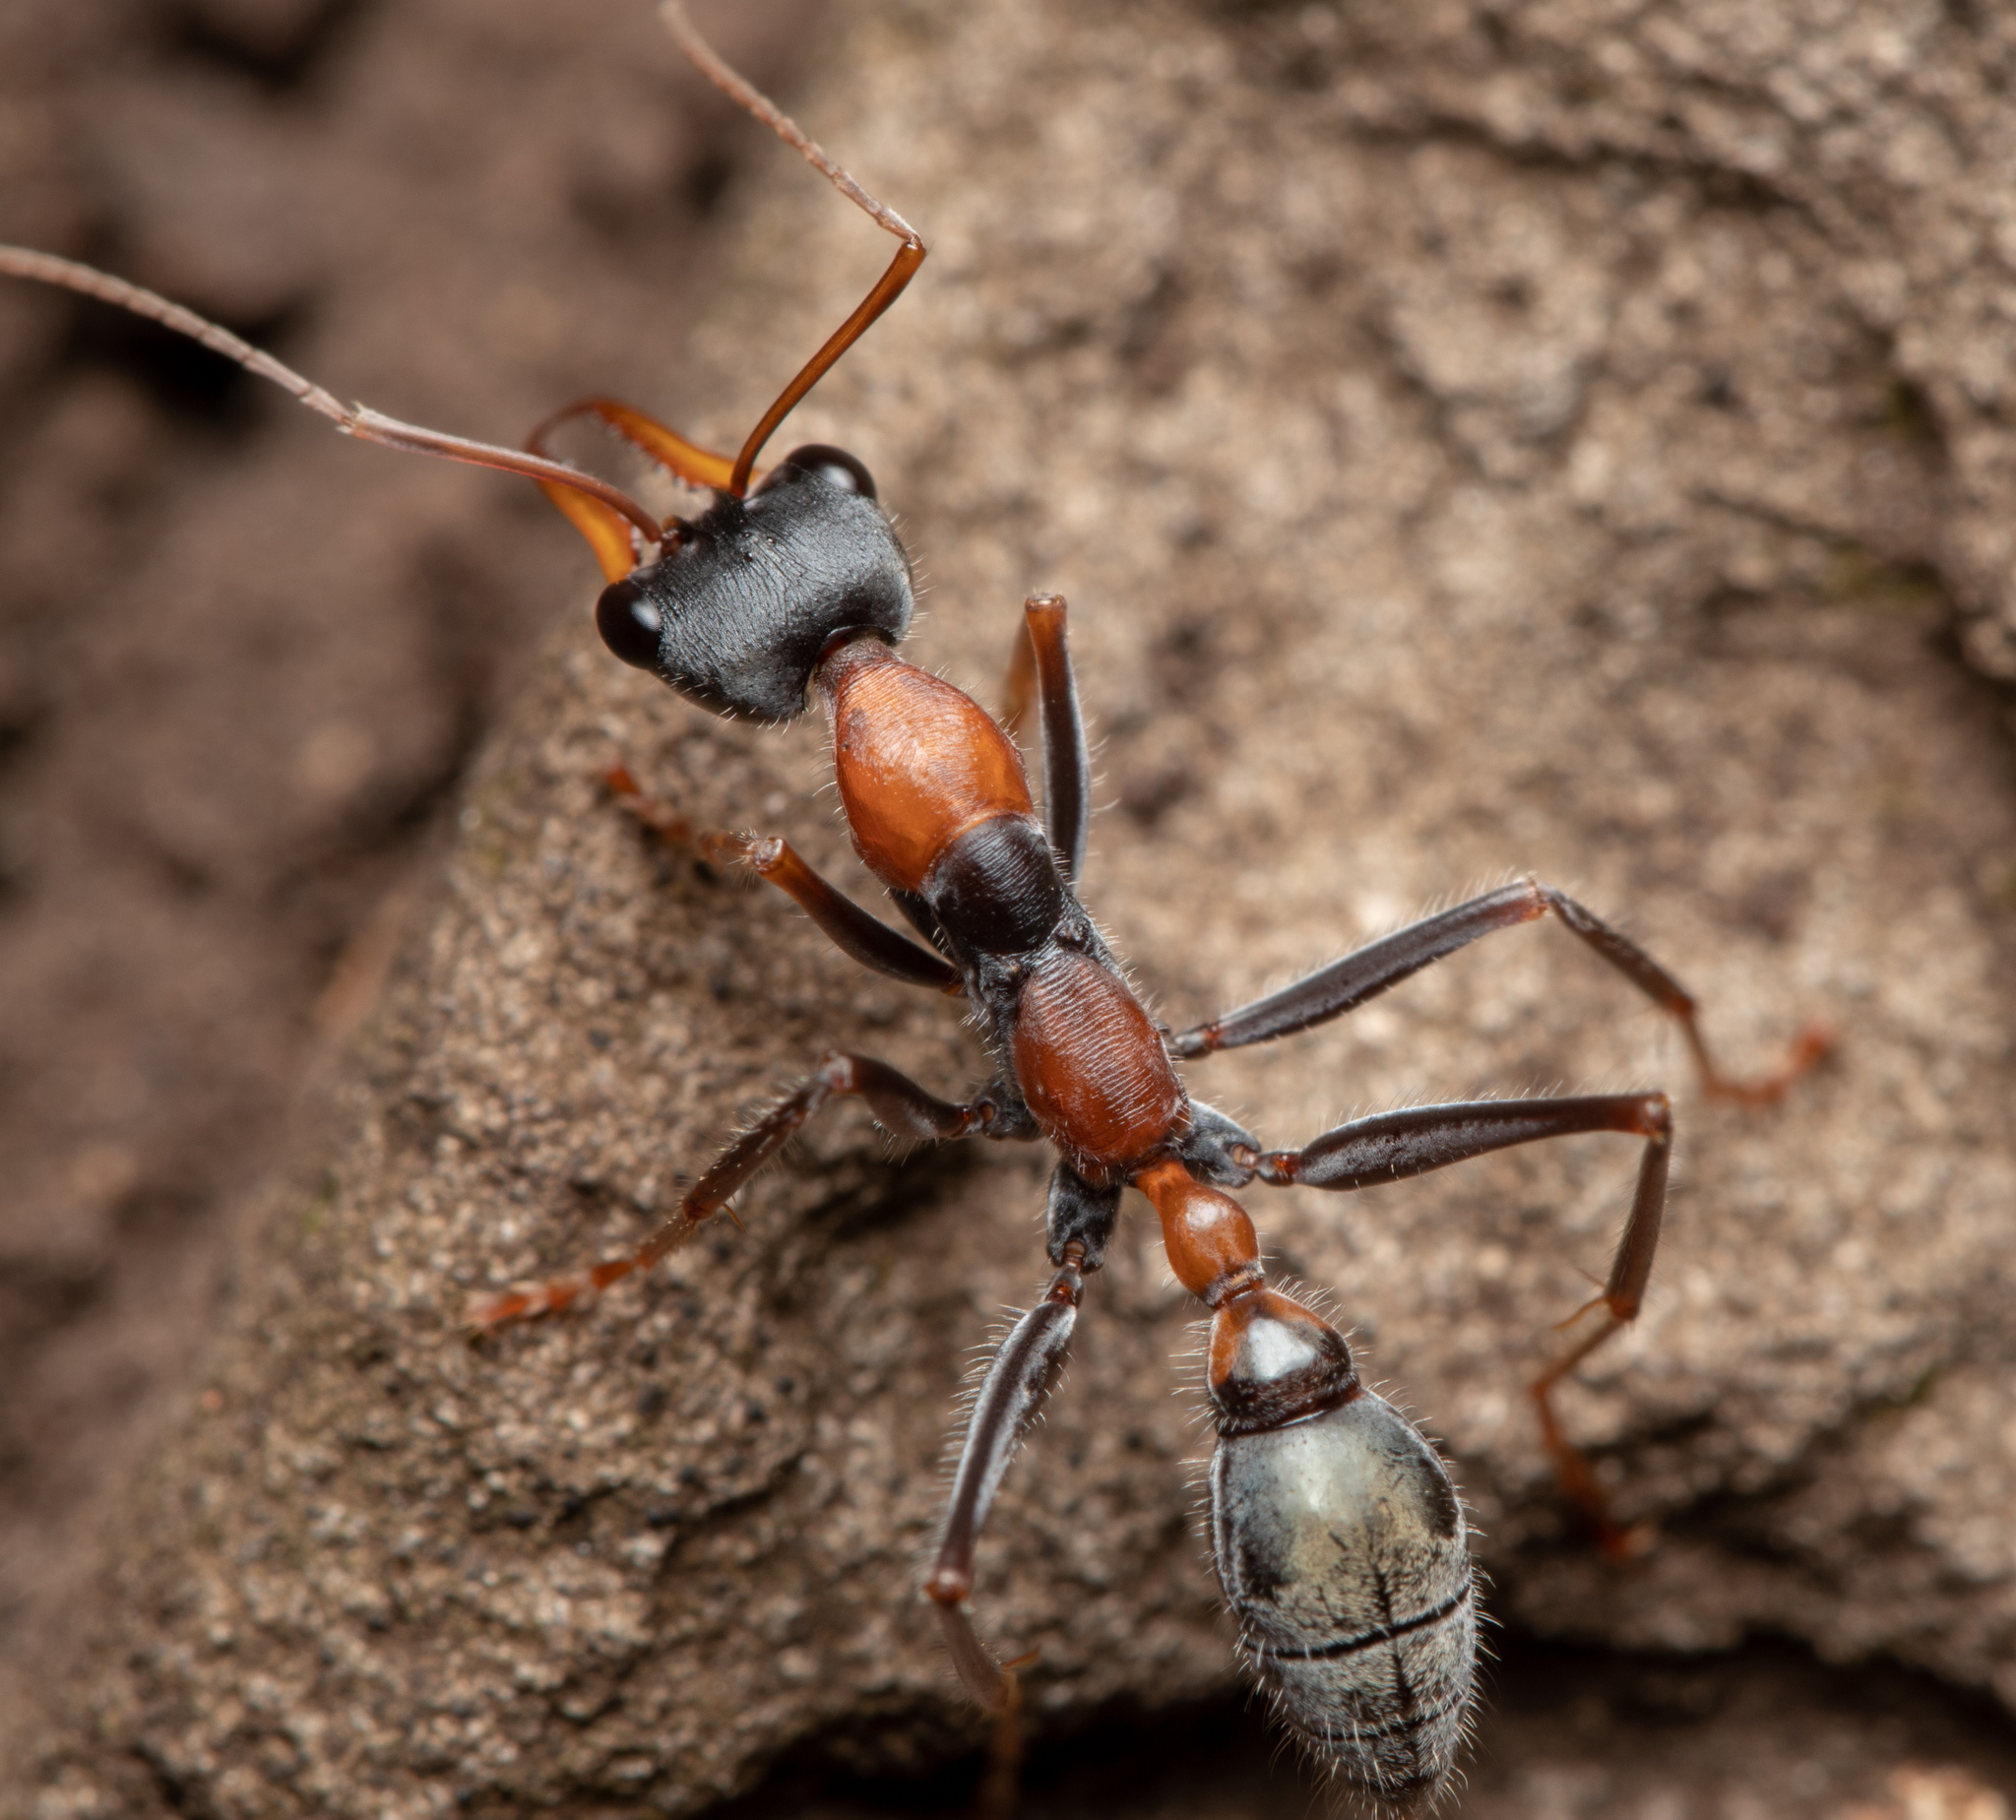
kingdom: Animalia
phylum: Arthropoda
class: Insecta
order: Hymenoptera
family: Formicidae
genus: Myrmecia
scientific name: Myrmecia nigrocincta
